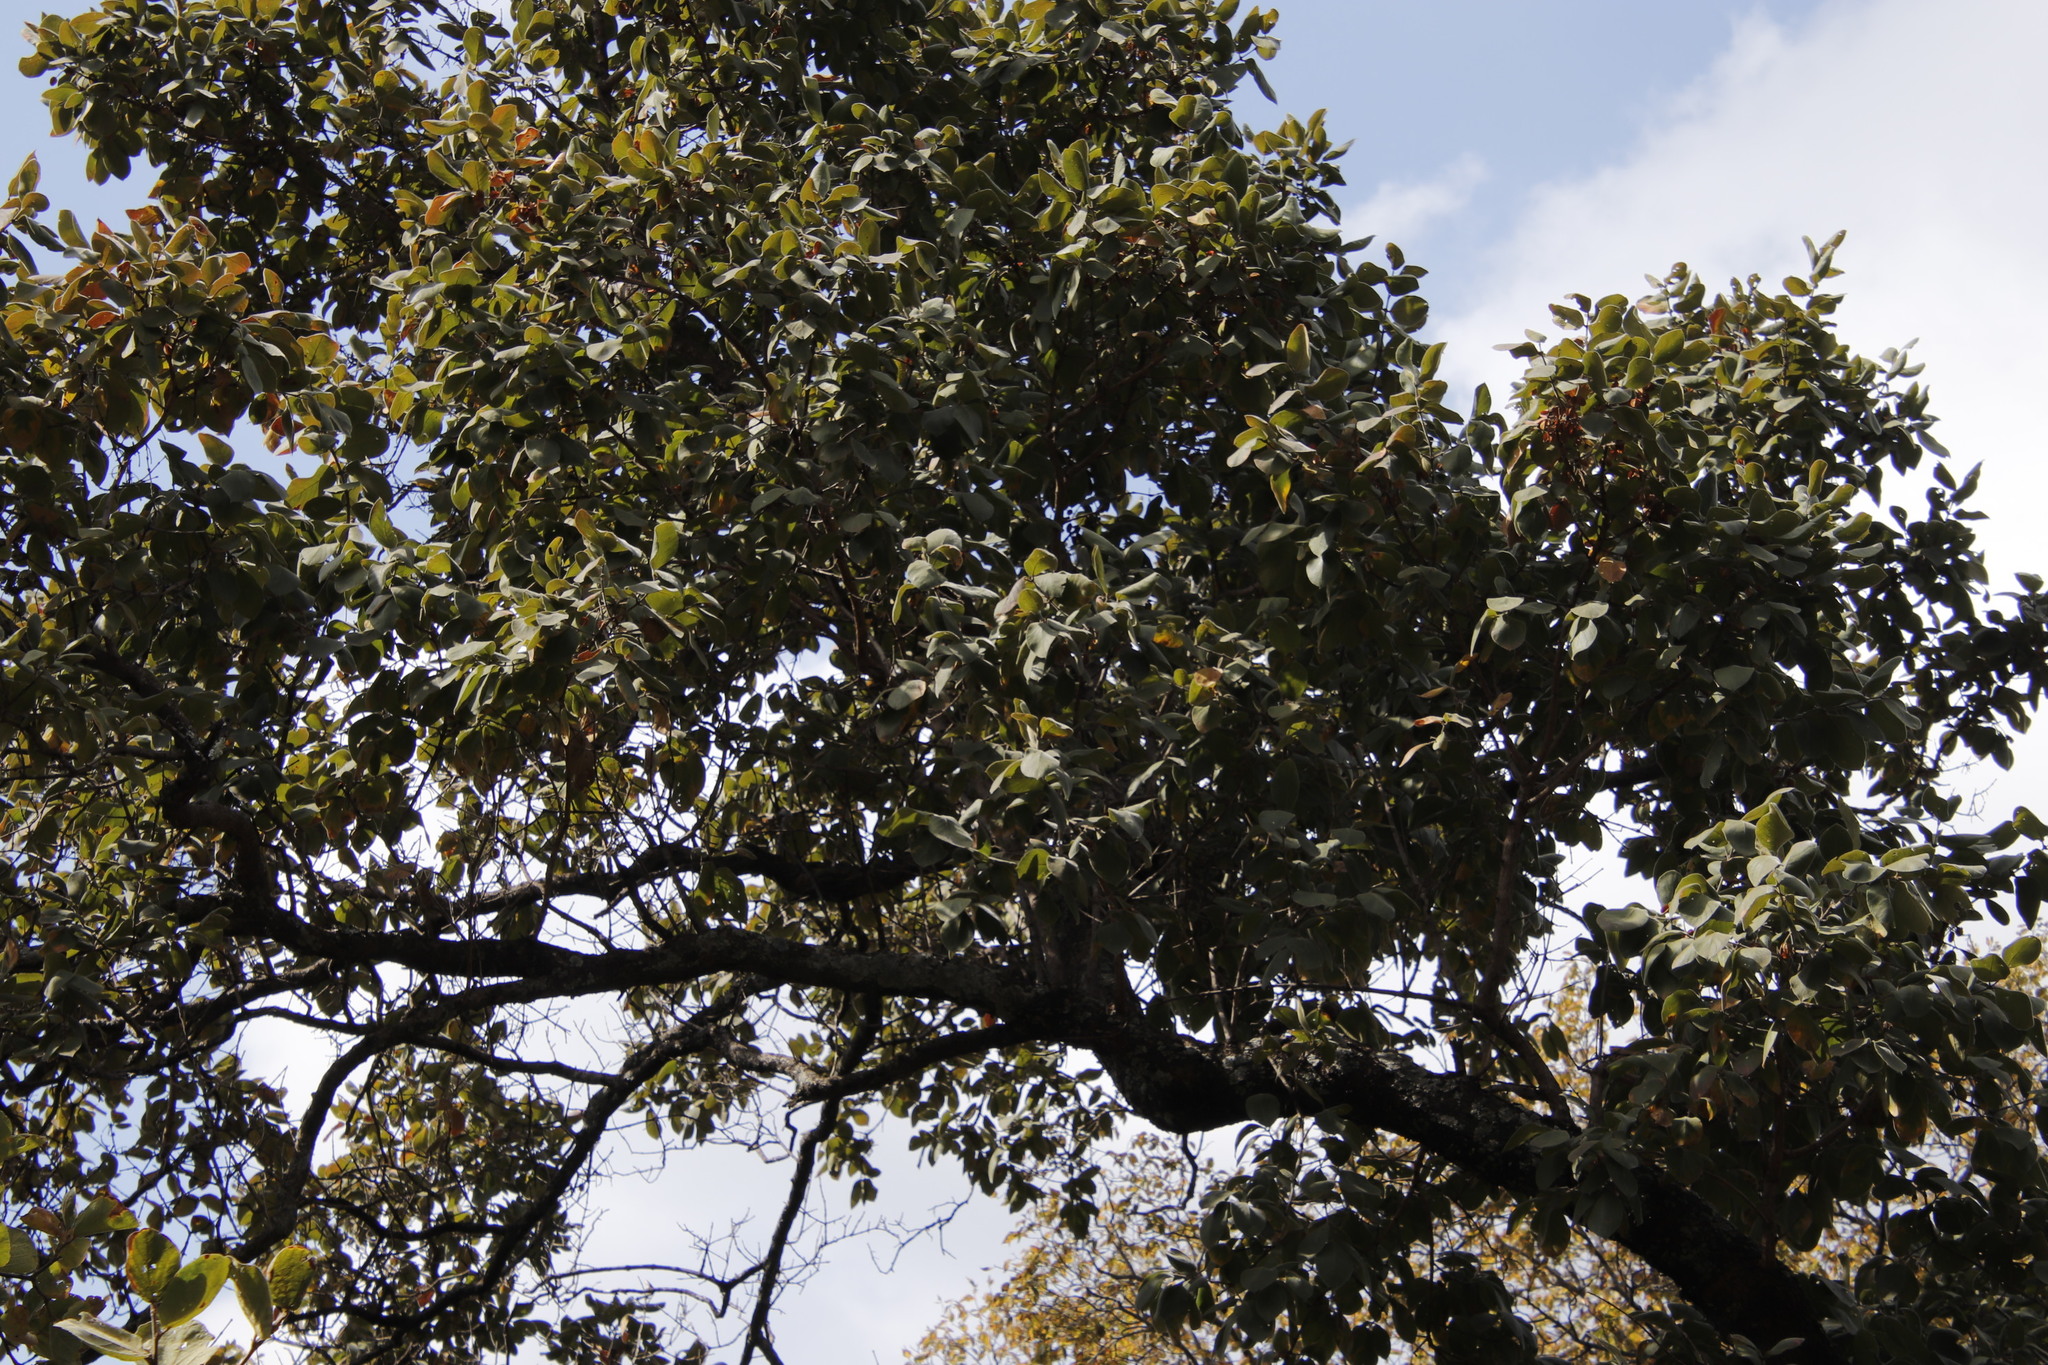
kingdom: Plantae
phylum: Tracheophyta
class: Magnoliopsida
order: Myrtales
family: Combretaceae
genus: Combretum
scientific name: Combretum molle
